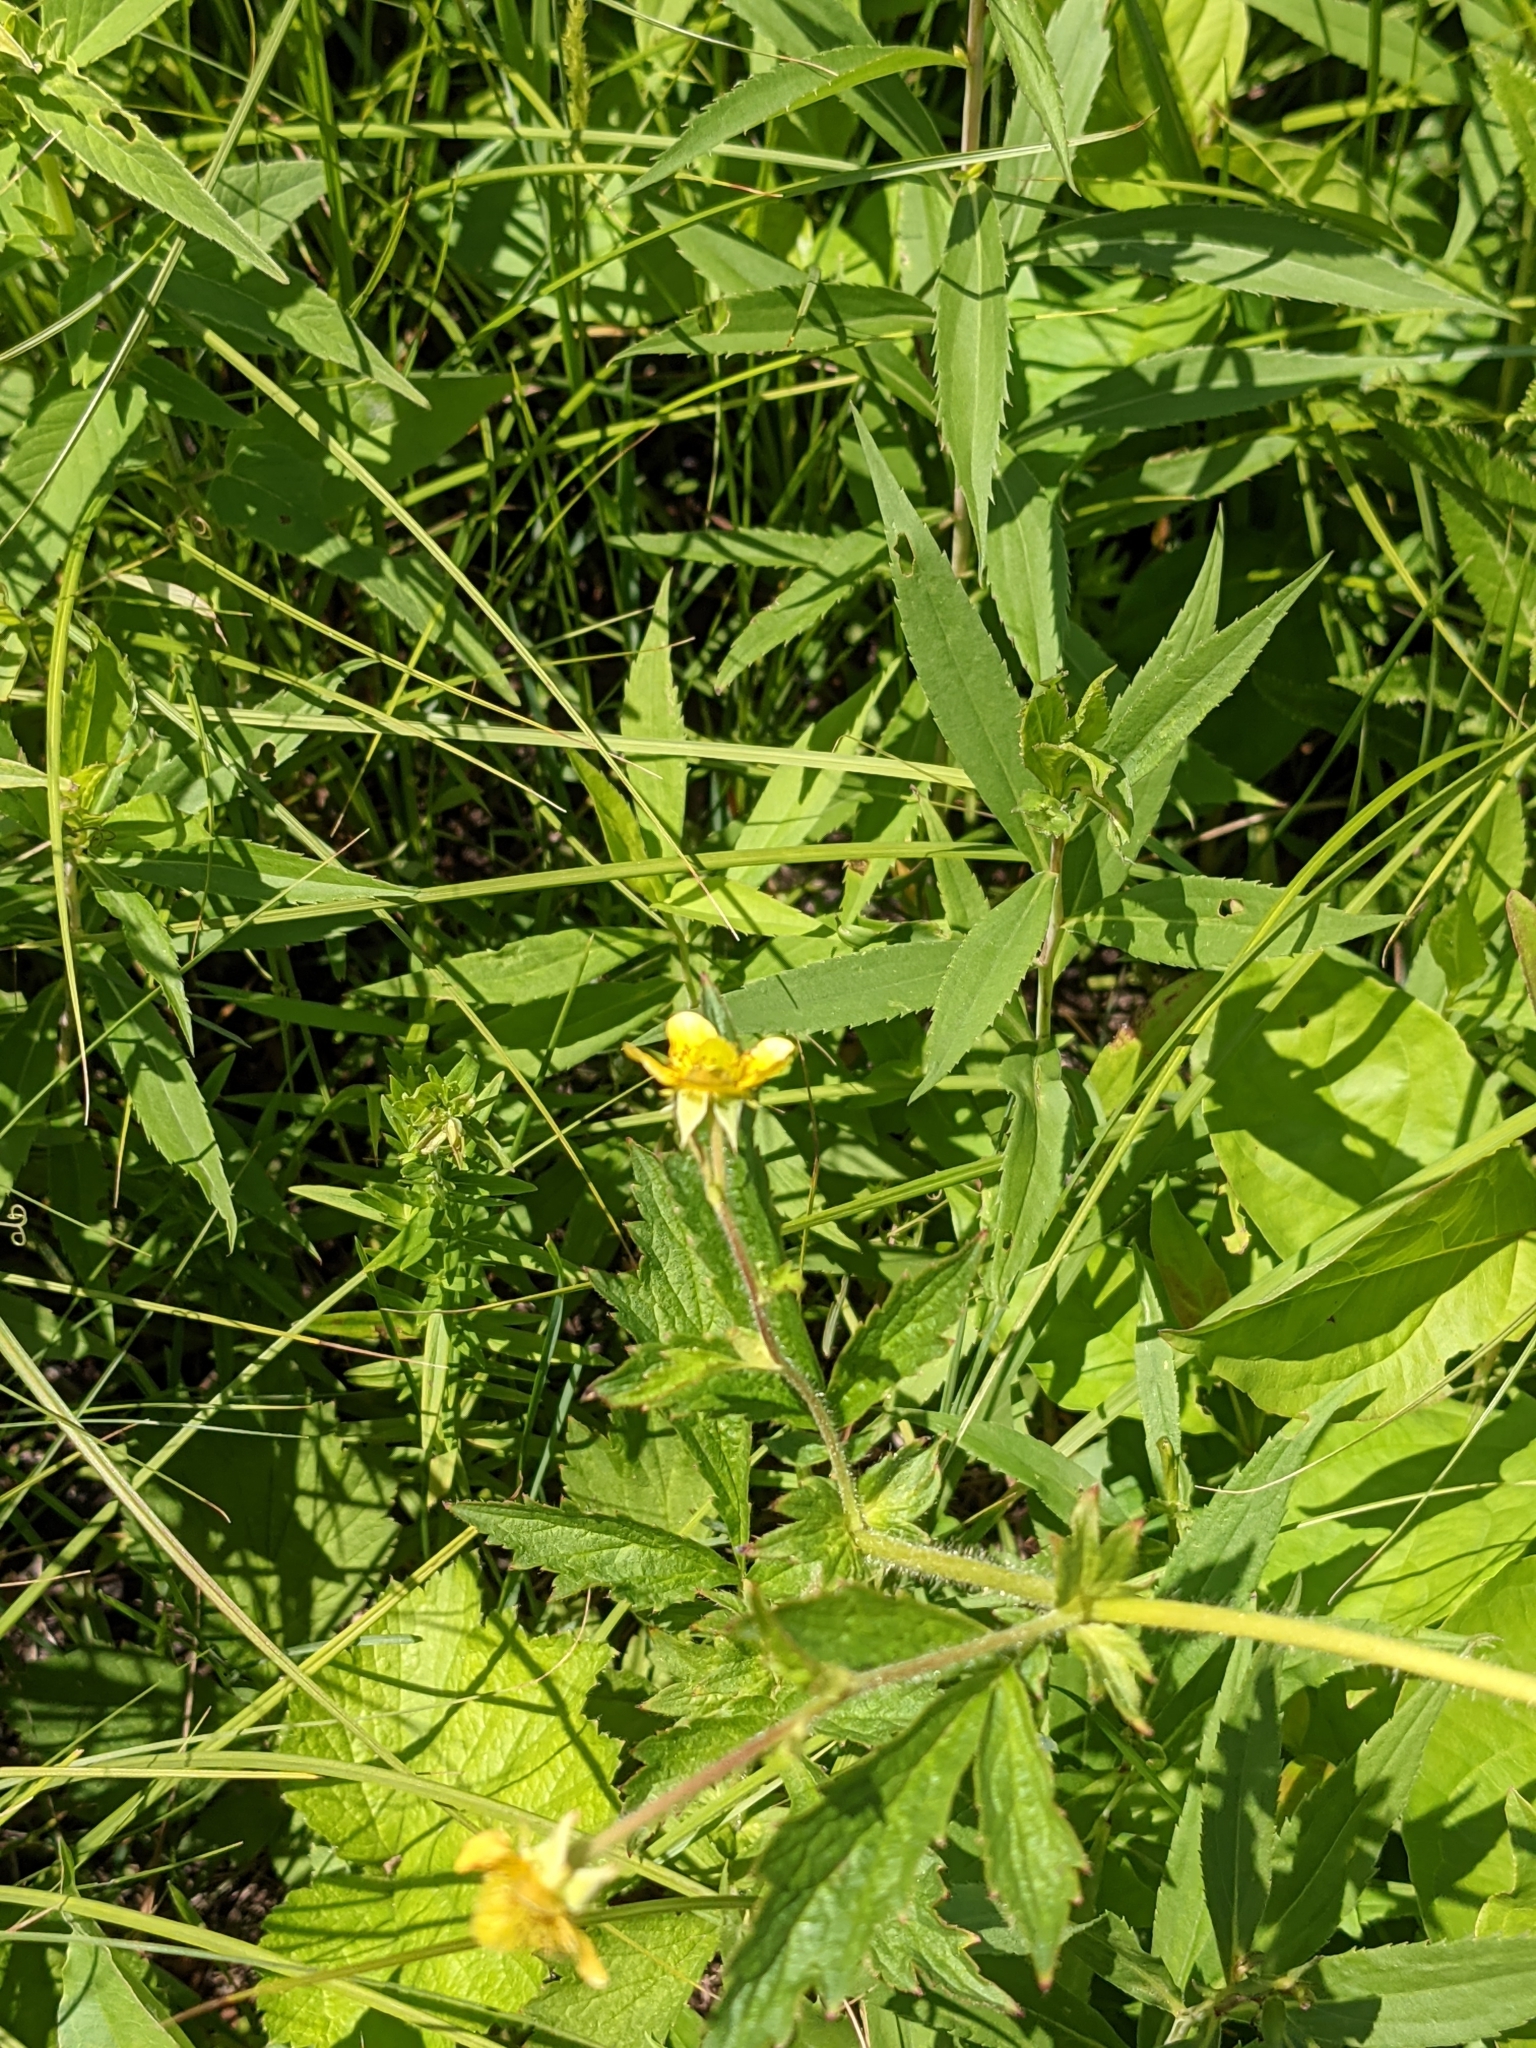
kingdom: Plantae
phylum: Tracheophyta
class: Magnoliopsida
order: Rosales
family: Rosaceae
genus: Geum
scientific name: Geum aleppicum
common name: Yellow avens
